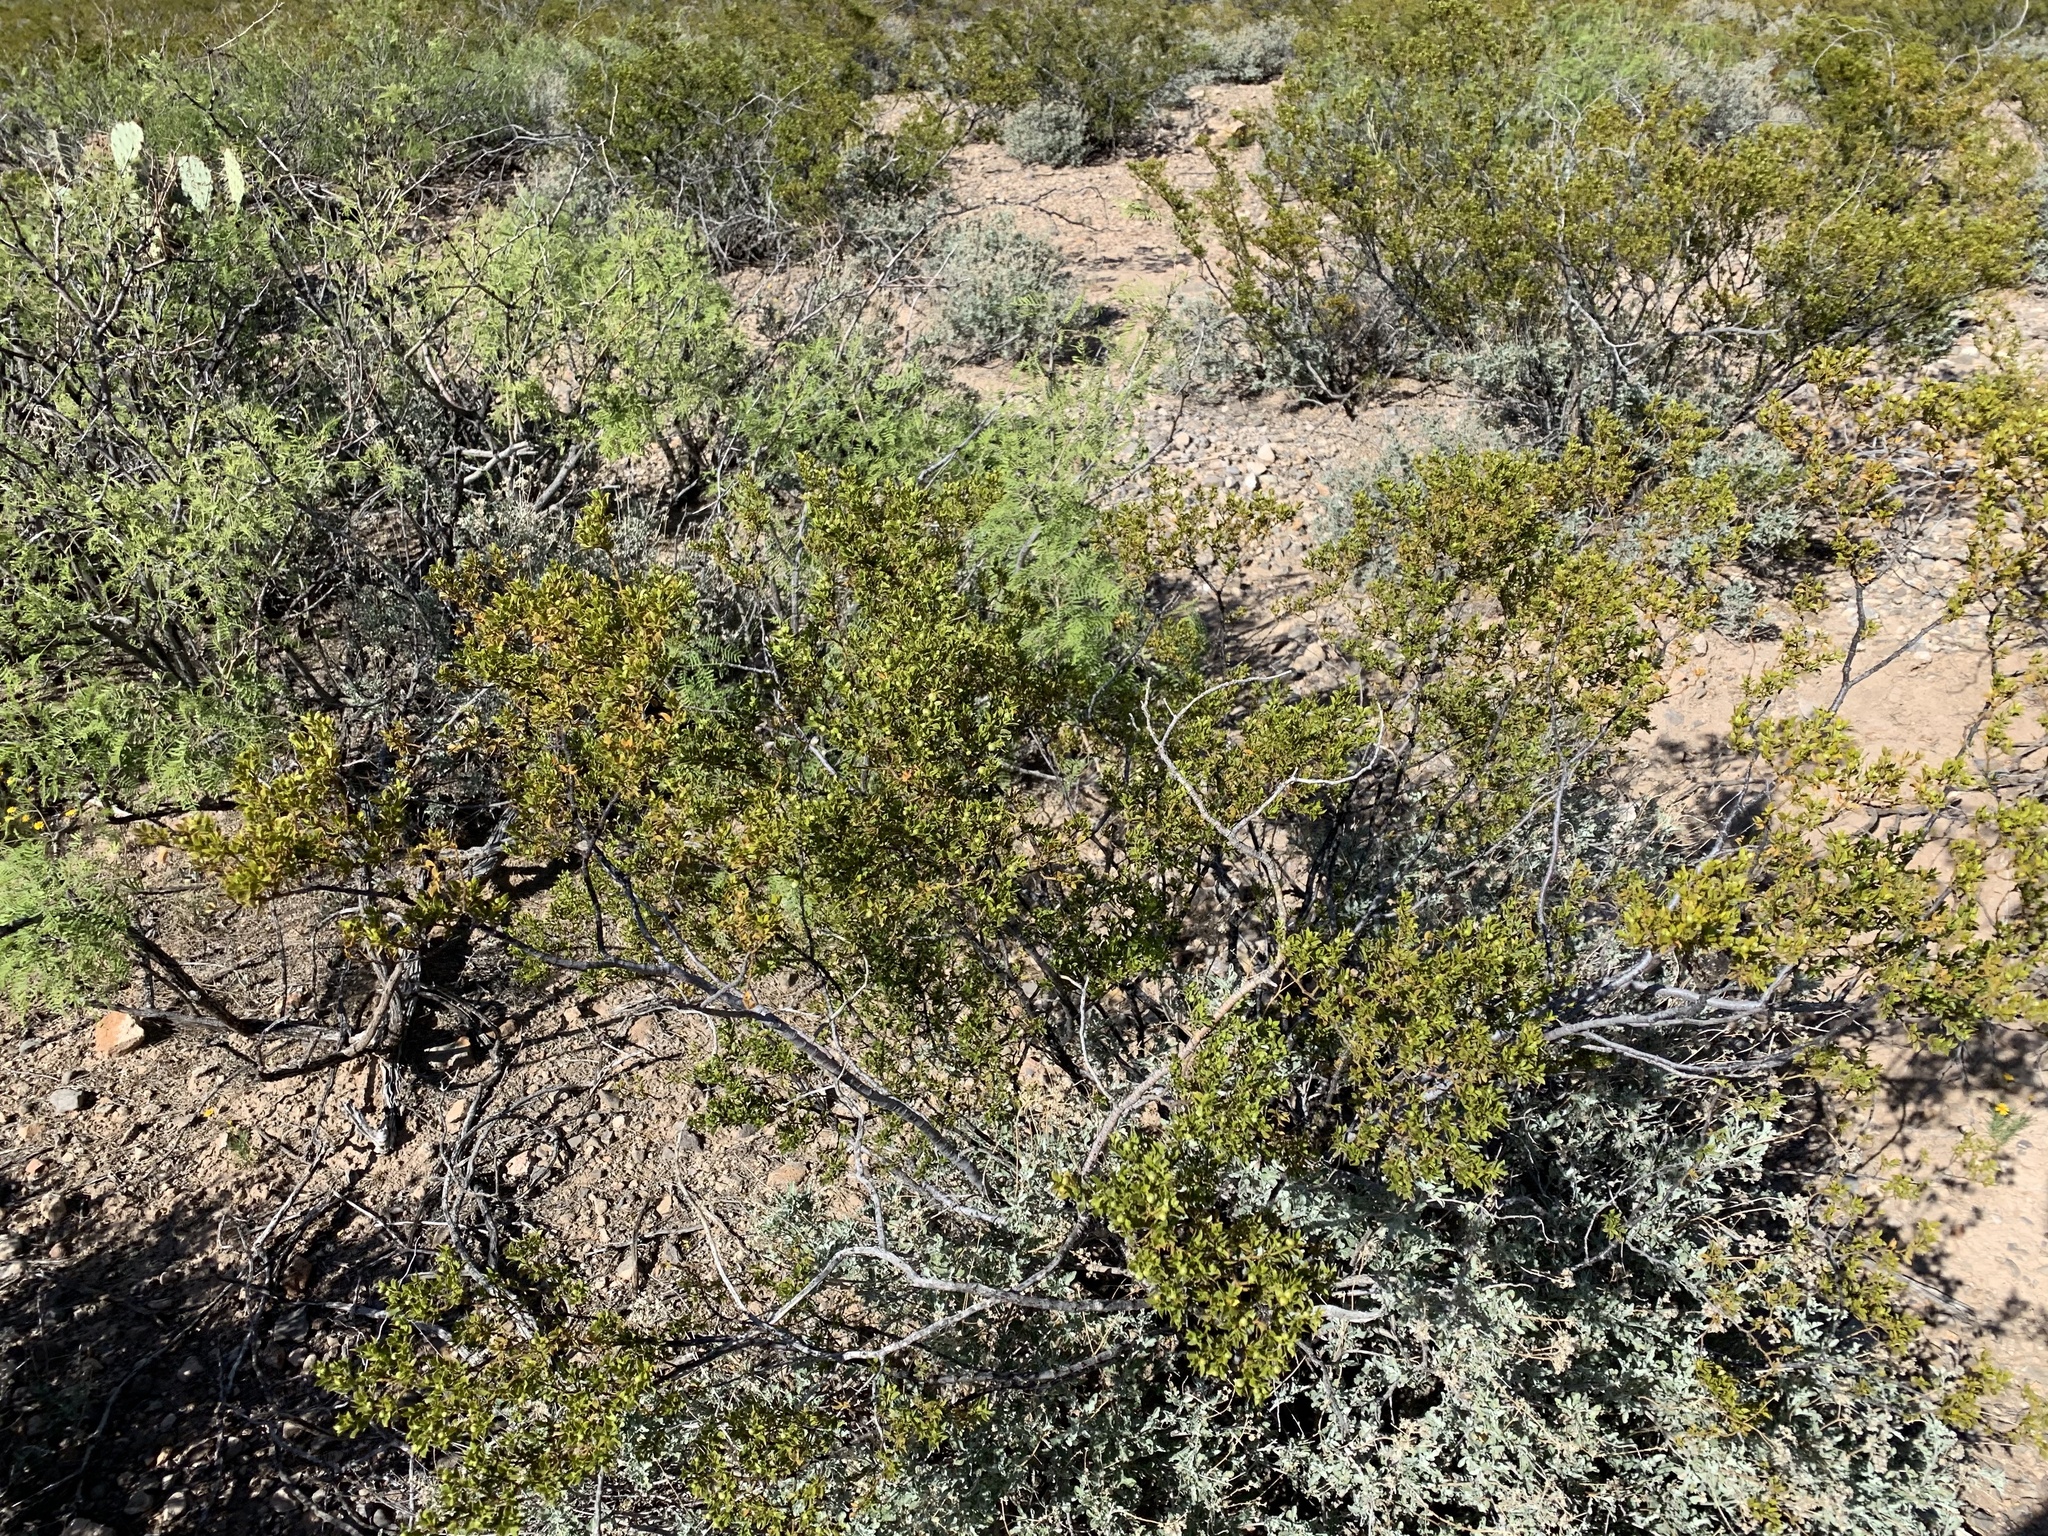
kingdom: Plantae
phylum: Tracheophyta
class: Magnoliopsida
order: Zygophyllales
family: Zygophyllaceae
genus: Larrea
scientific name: Larrea tridentata
